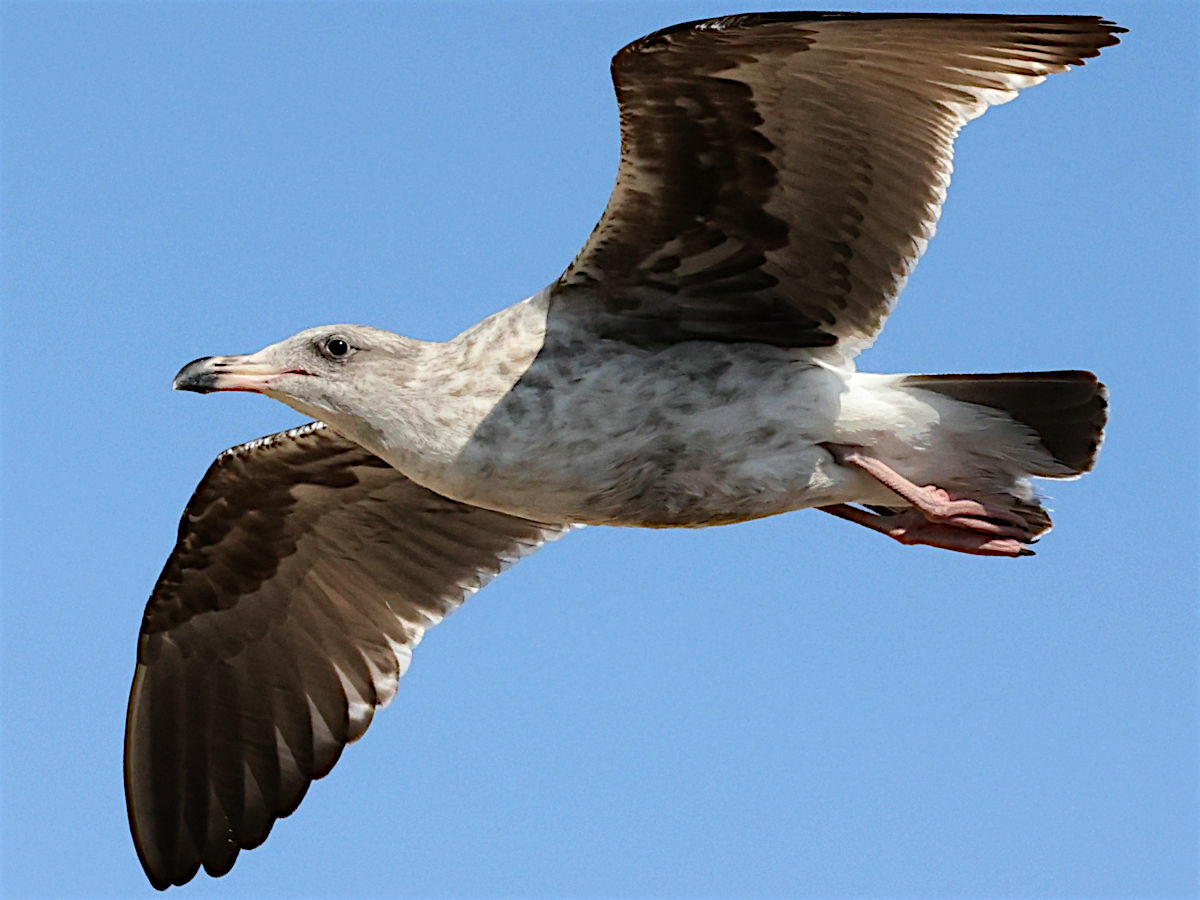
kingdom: Animalia
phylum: Chordata
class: Aves
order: Charadriiformes
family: Laridae
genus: Larus
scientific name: Larus occidentalis
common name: Western gull
